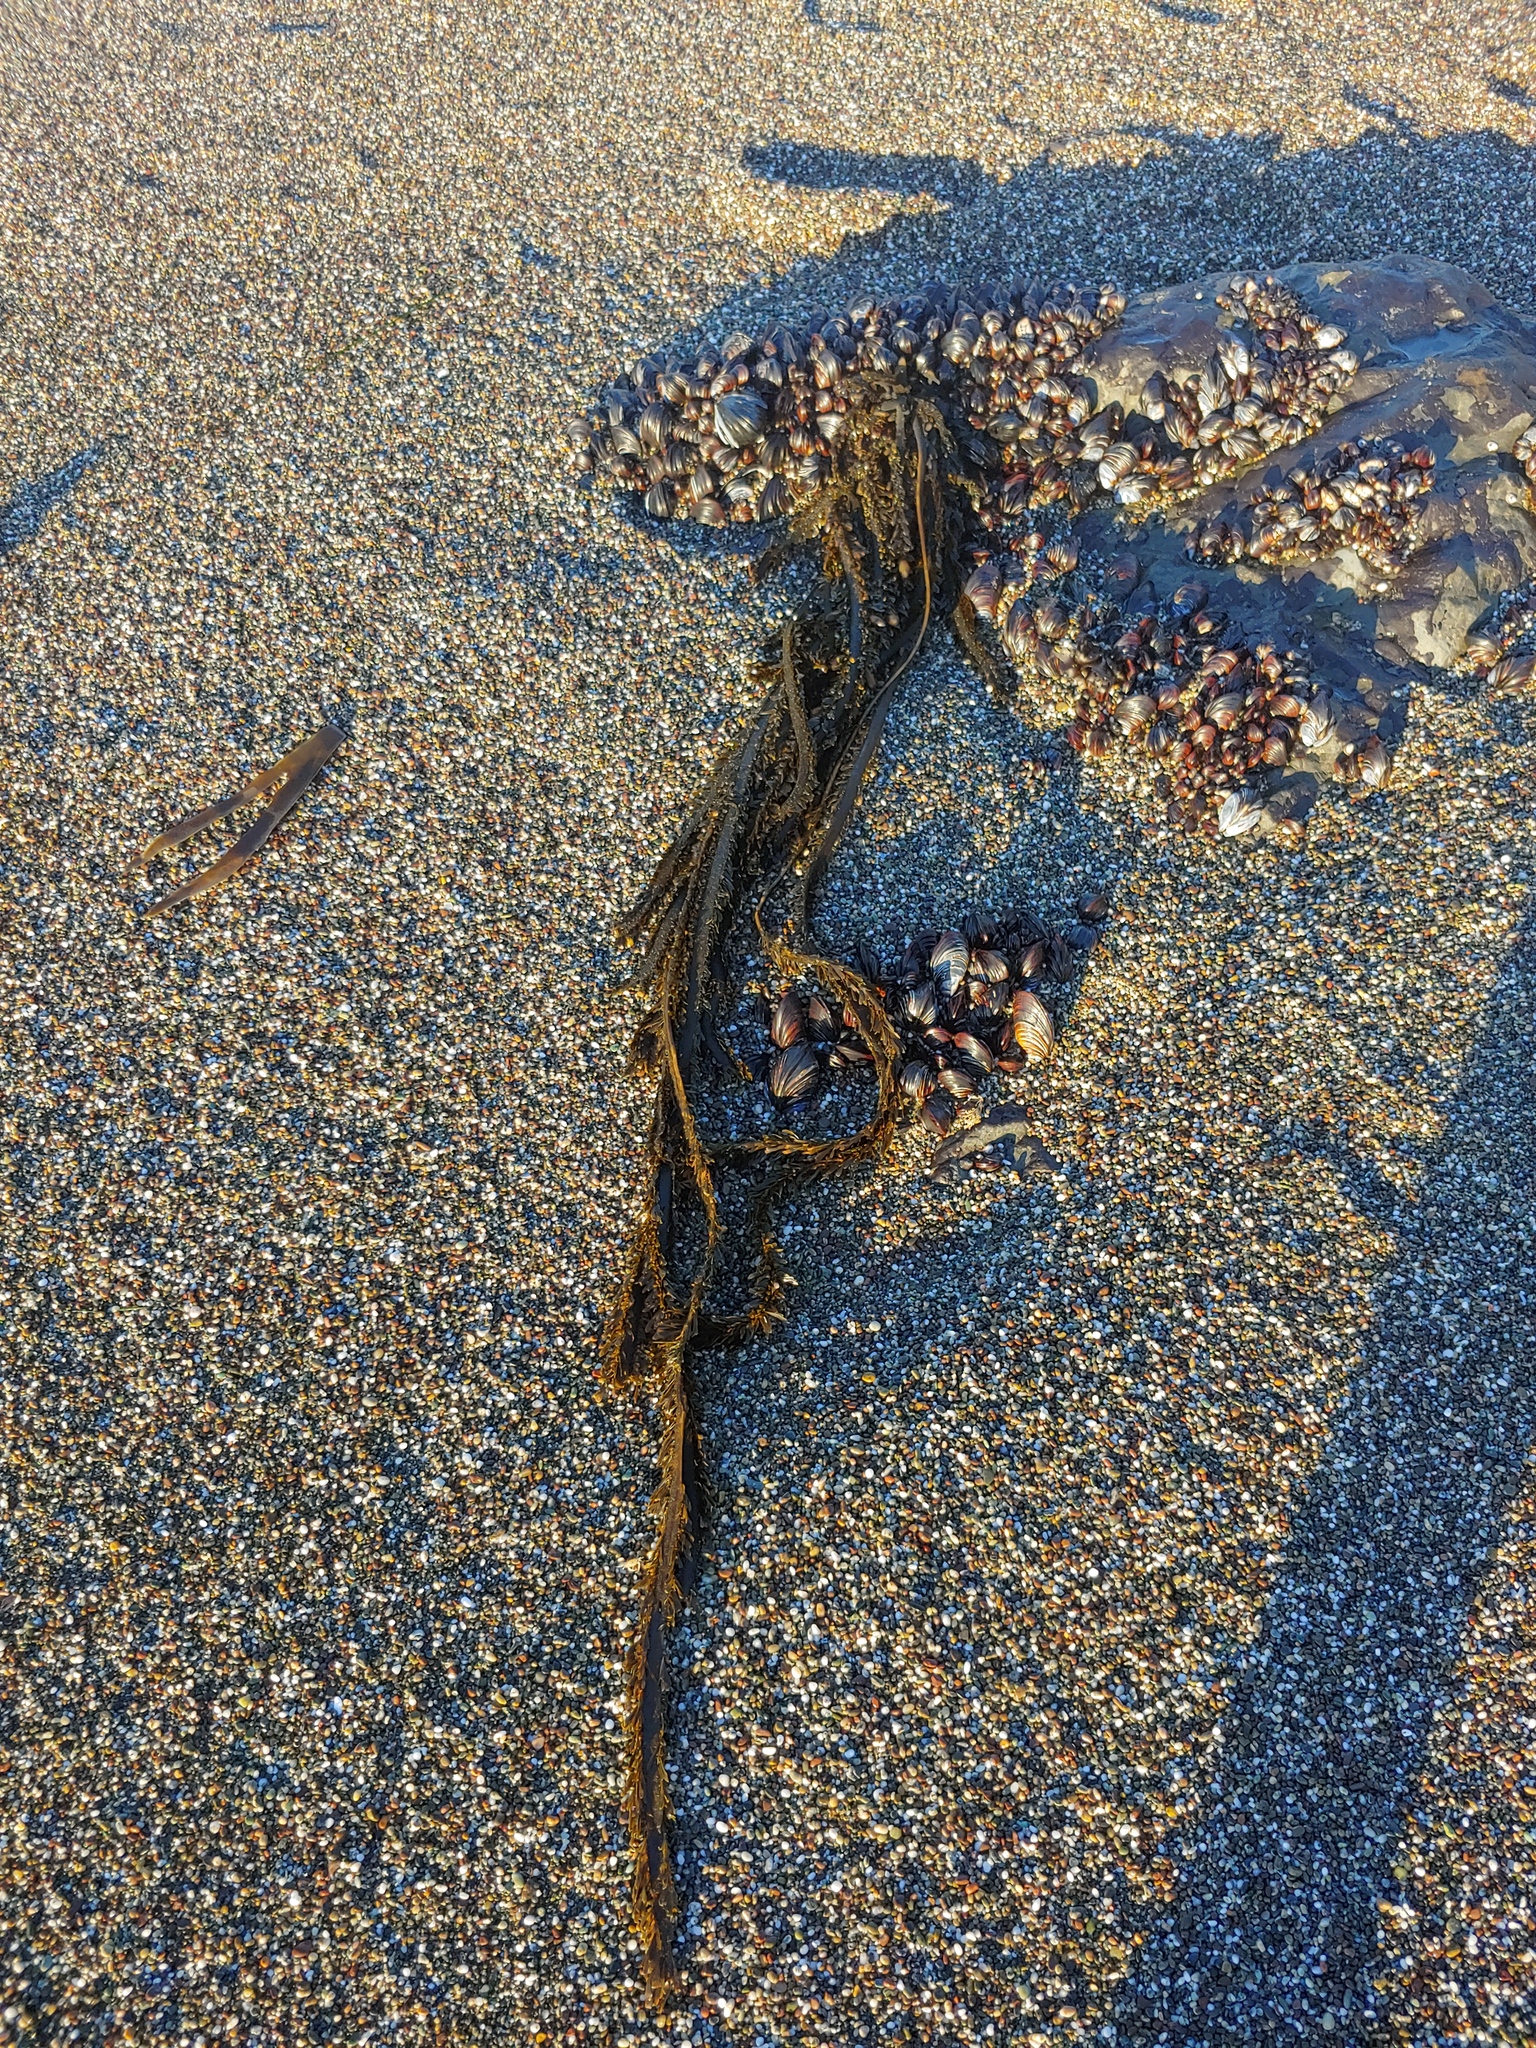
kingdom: Chromista
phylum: Ochrophyta
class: Phaeophyceae
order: Laminariales
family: Lessoniaceae
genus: Egregia
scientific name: Egregia menziesii
